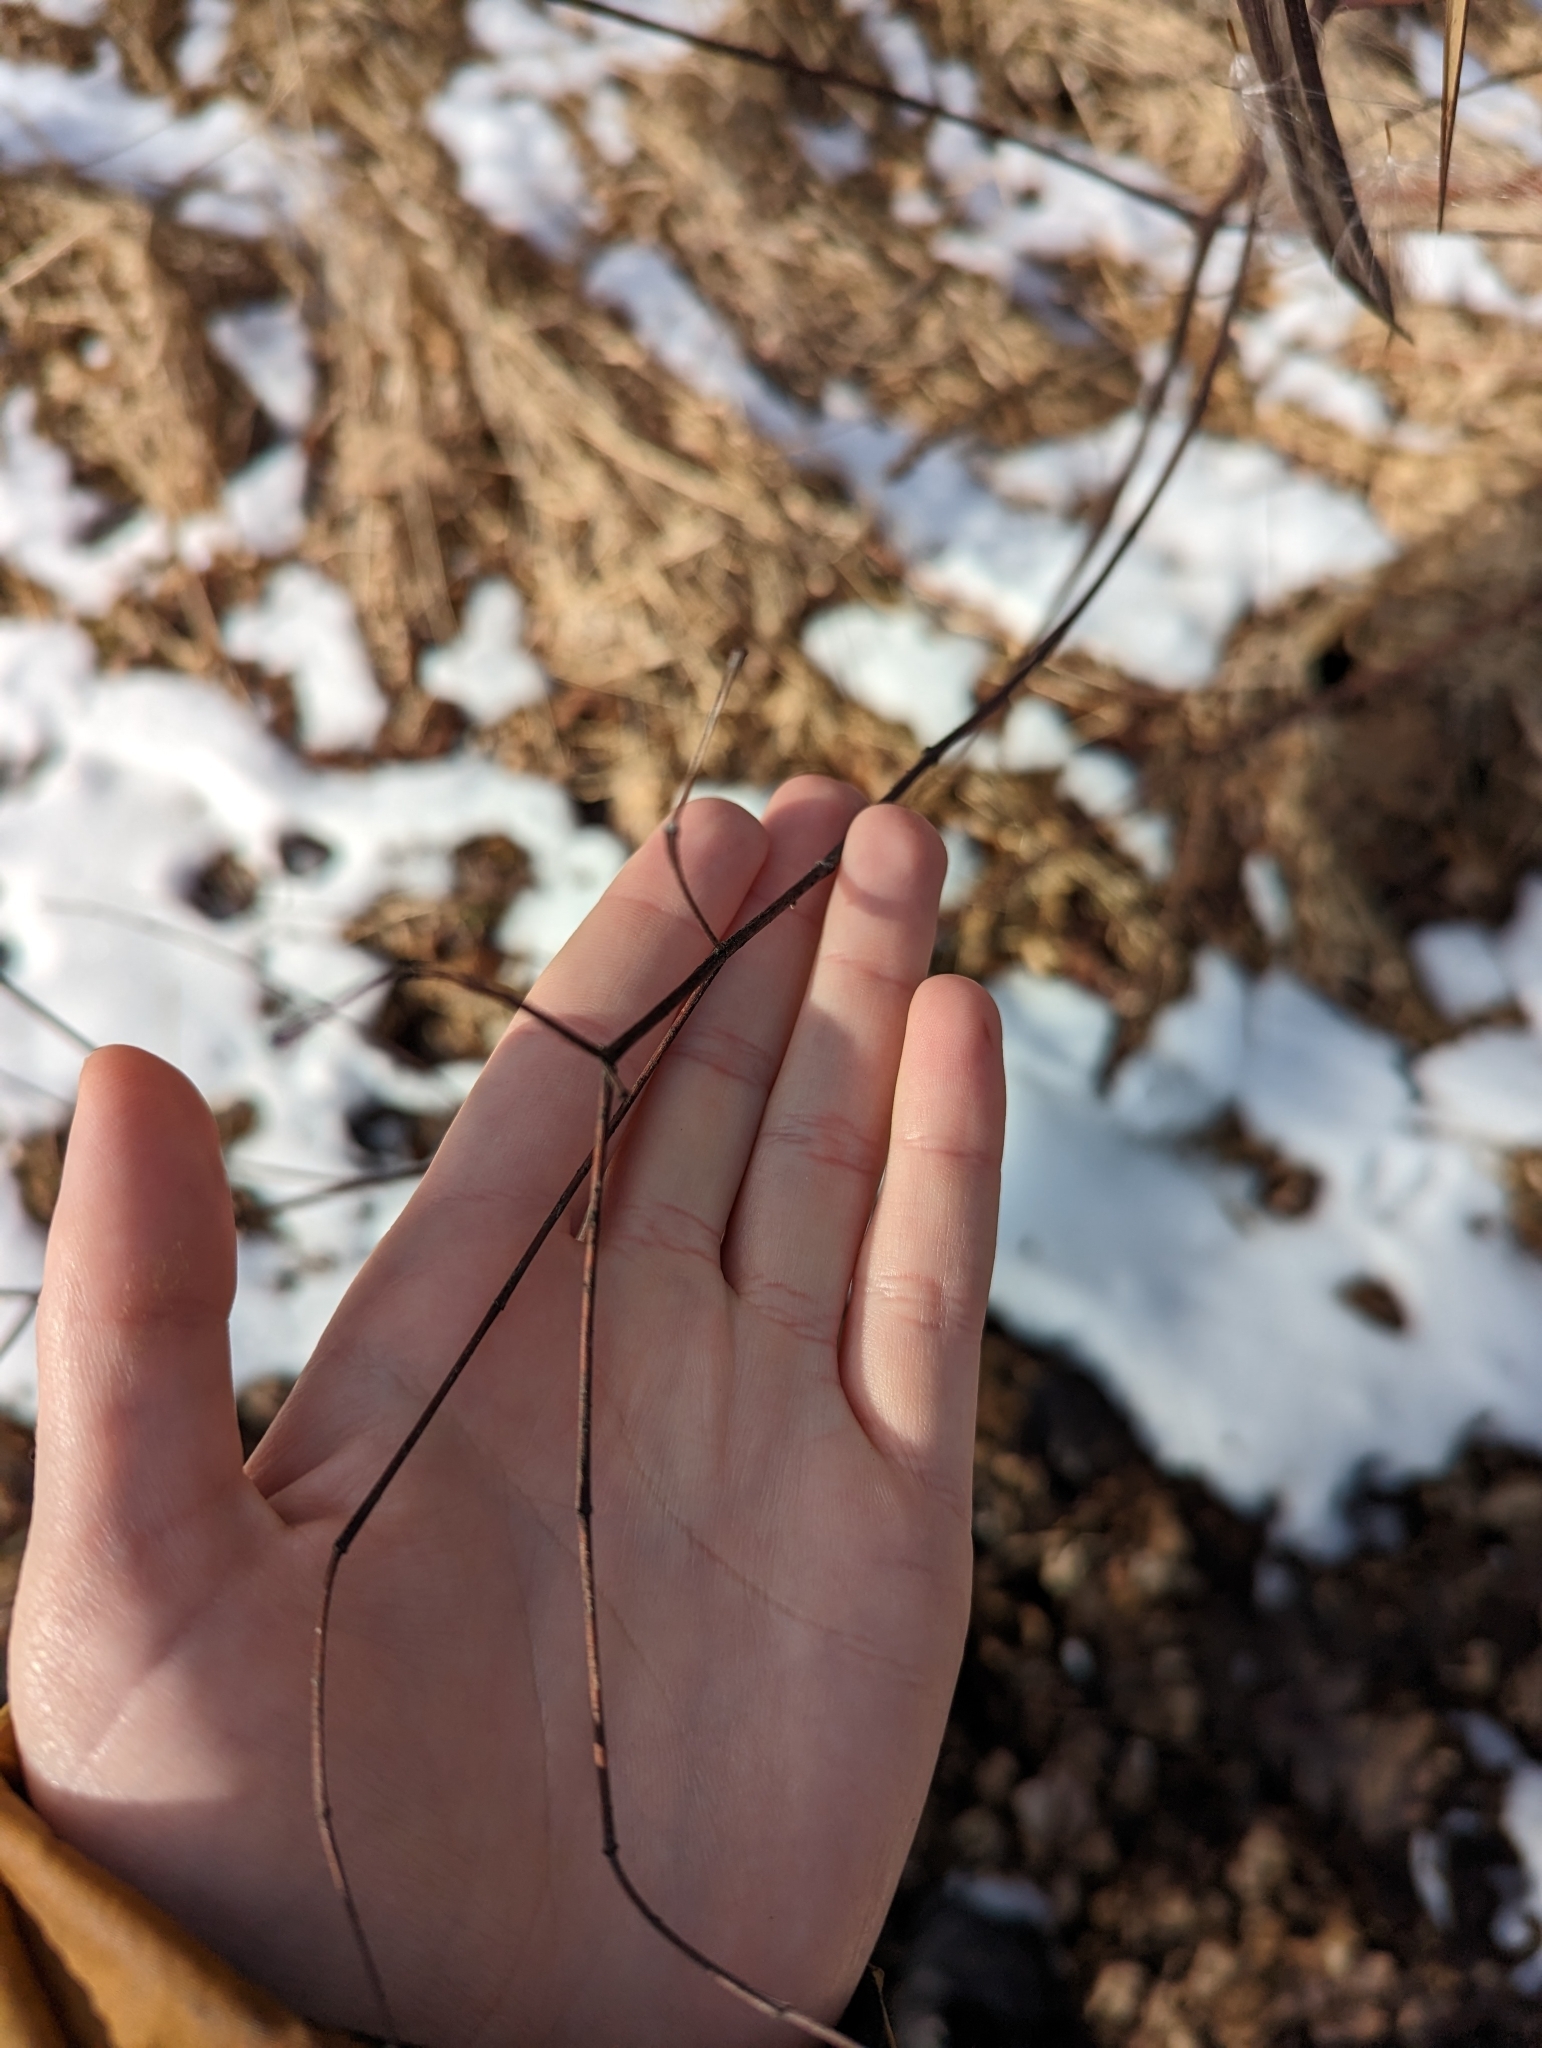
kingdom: Plantae
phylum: Tracheophyta
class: Magnoliopsida
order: Gentianales
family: Apocynaceae
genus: Apocynum
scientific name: Apocynum cannabinum
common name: Hemp dogbane
